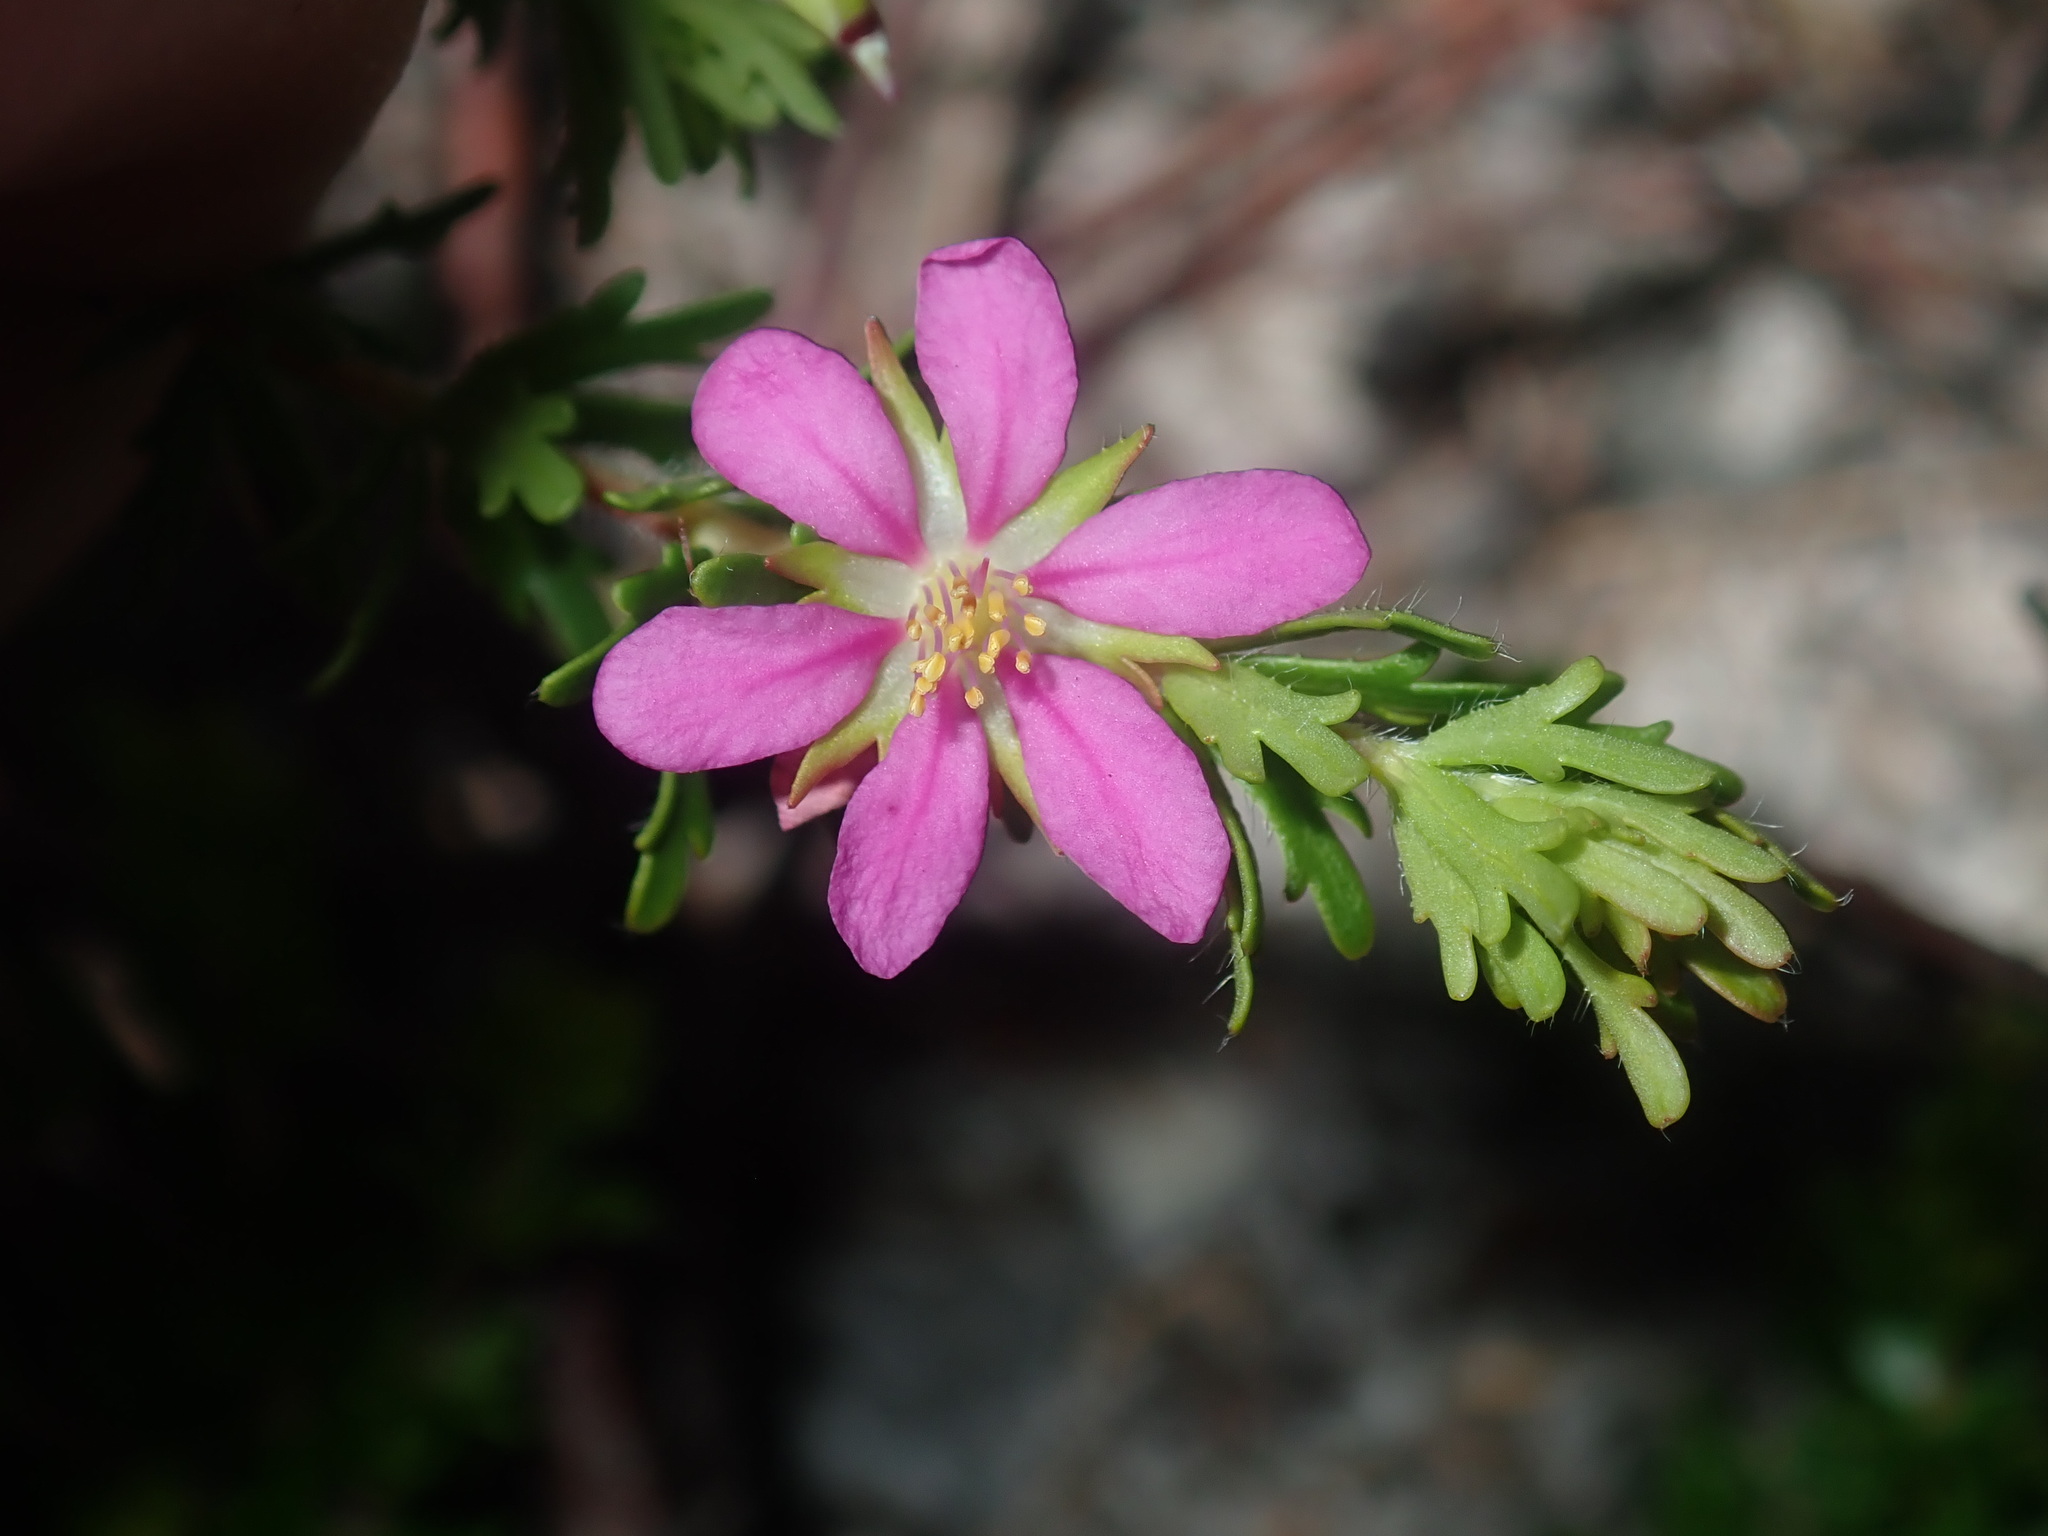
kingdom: Plantae
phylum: Tracheophyta
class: Magnoliopsida
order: Oxalidales
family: Cunoniaceae
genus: Bauera
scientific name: Bauera capitata
